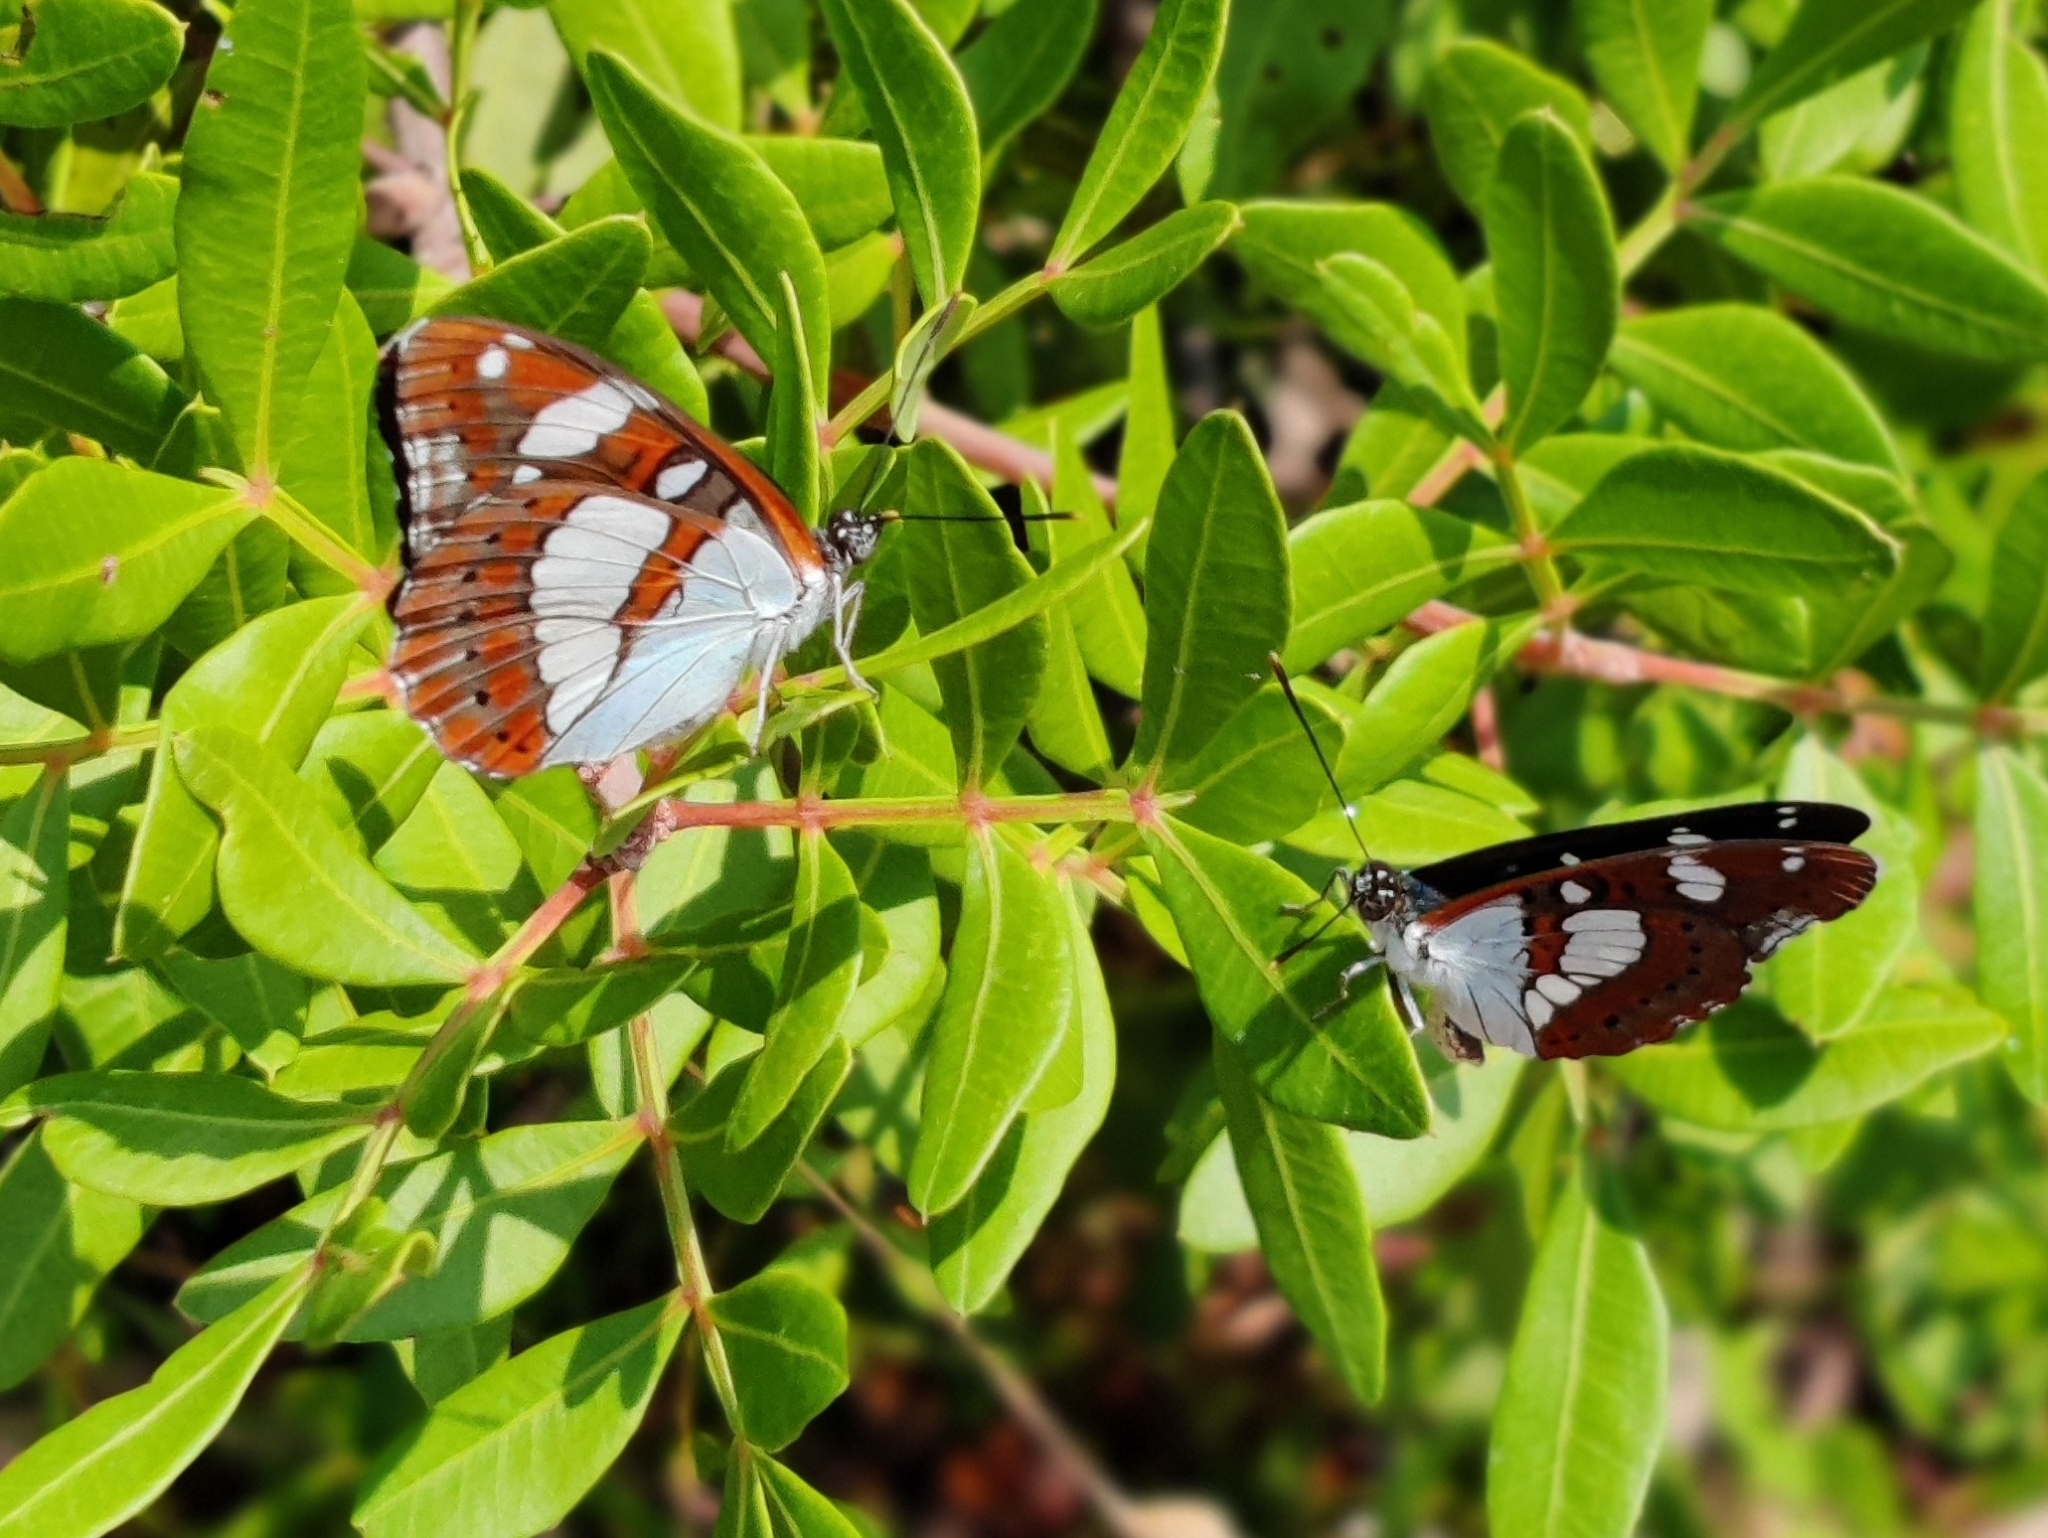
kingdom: Animalia
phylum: Arthropoda
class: Insecta
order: Lepidoptera
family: Nymphalidae
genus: Limenitis
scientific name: Limenitis reducta
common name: Southern white admiral
